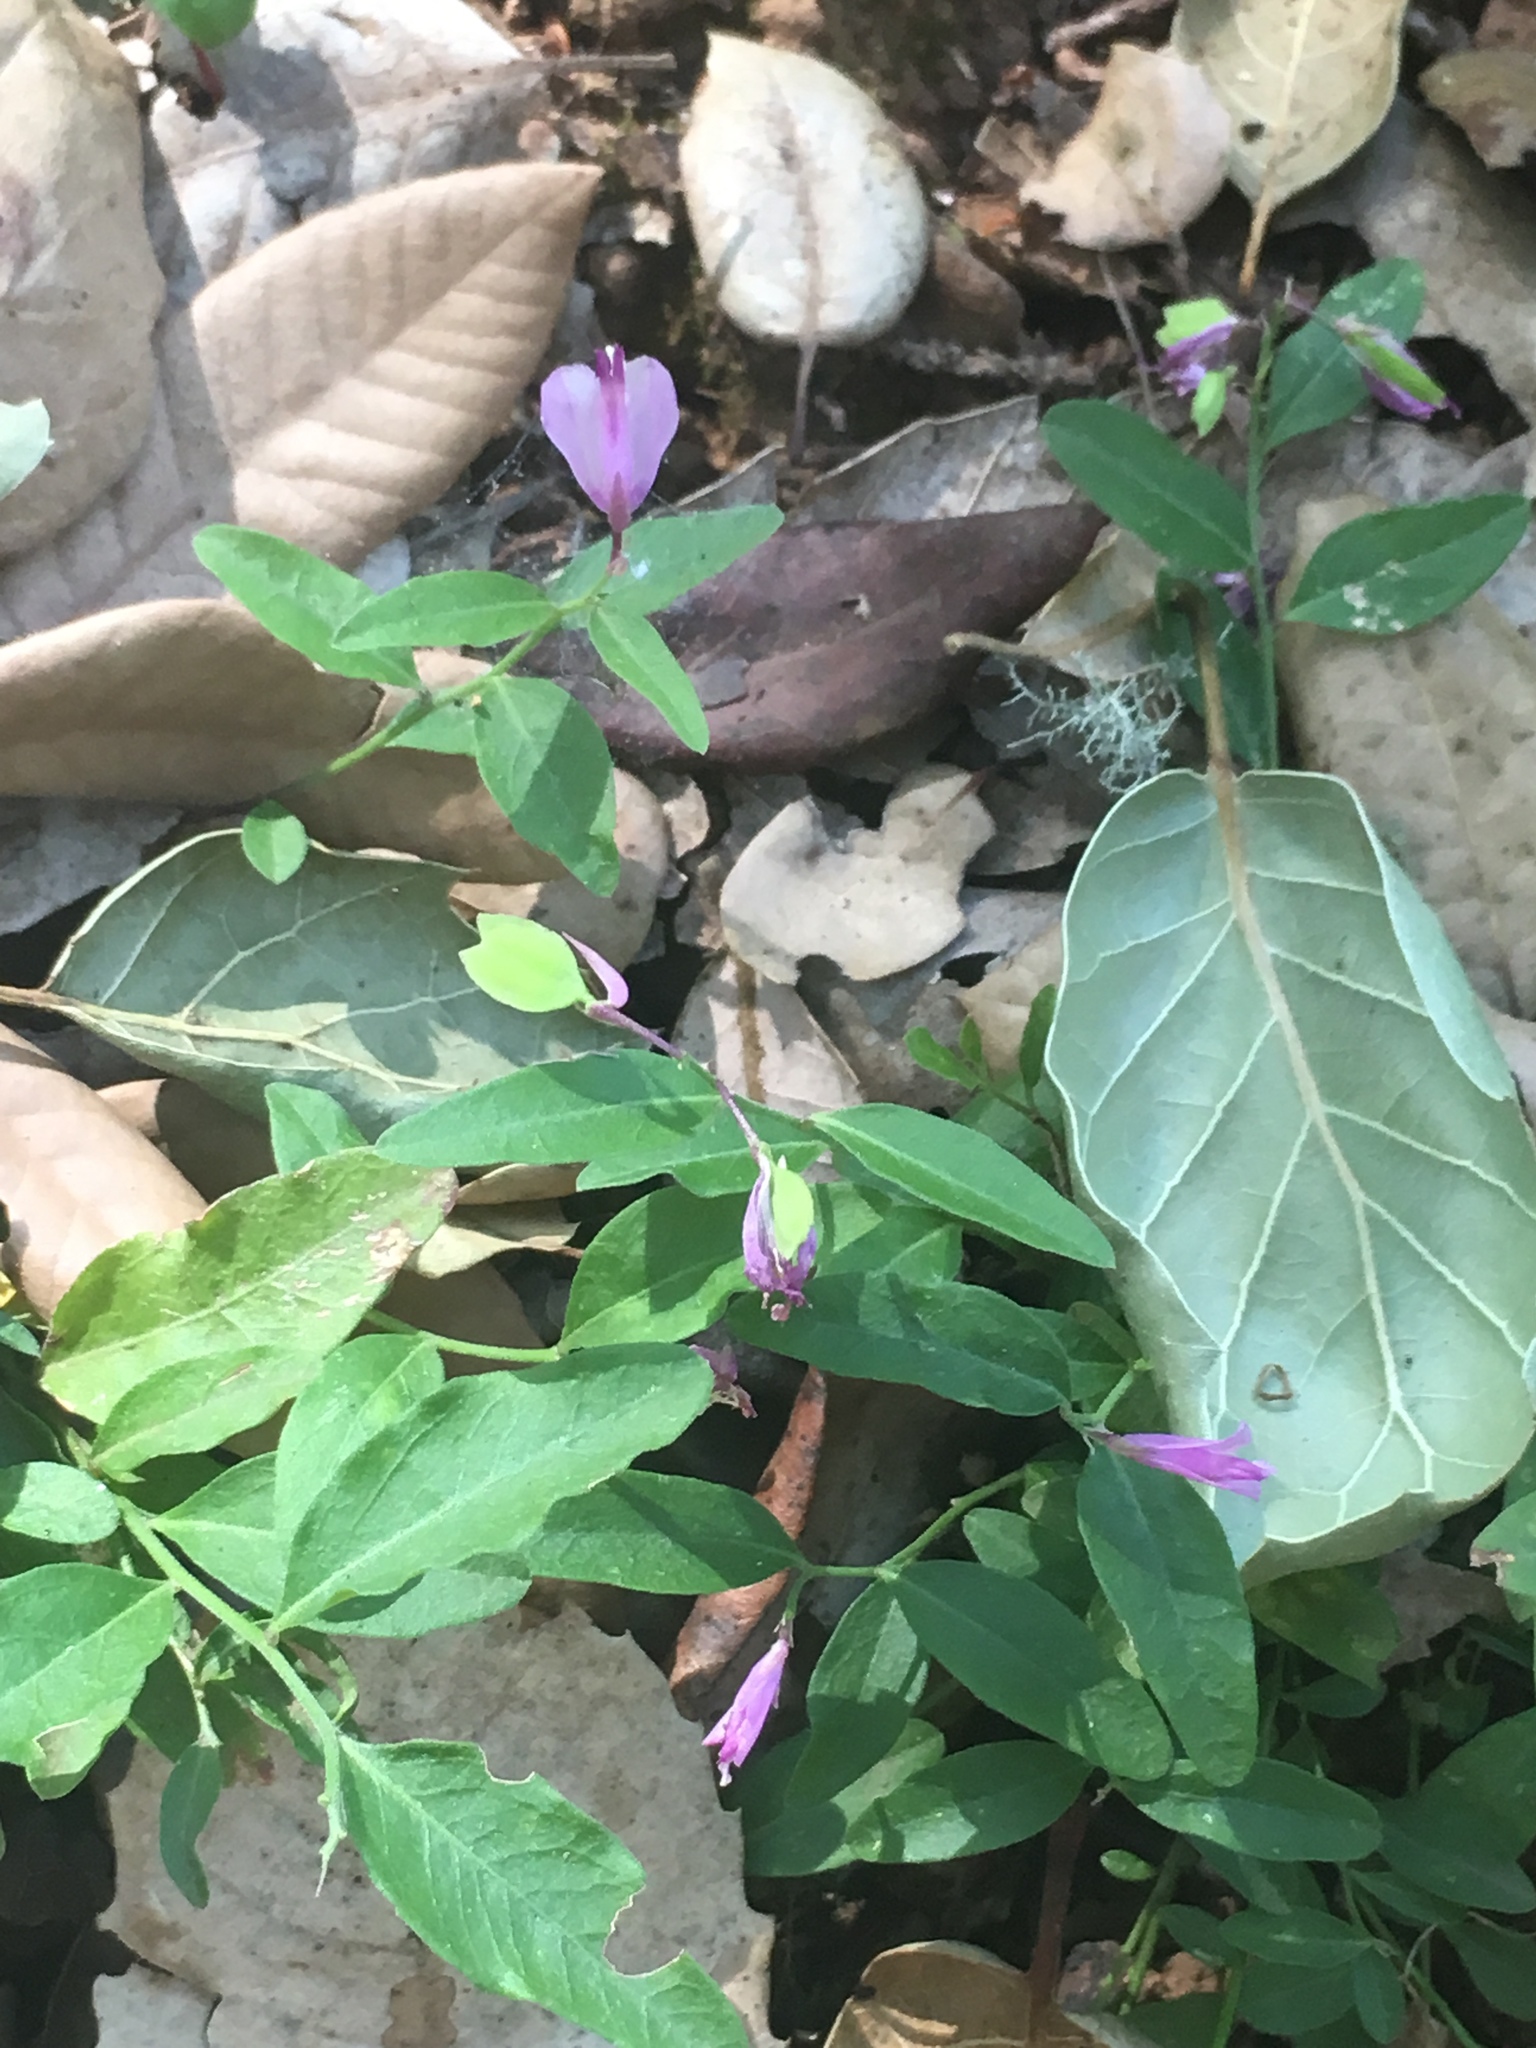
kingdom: Plantae
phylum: Tracheophyta
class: Magnoliopsida
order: Fabales
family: Polygalaceae
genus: Rhinotropis
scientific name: Rhinotropis californica
